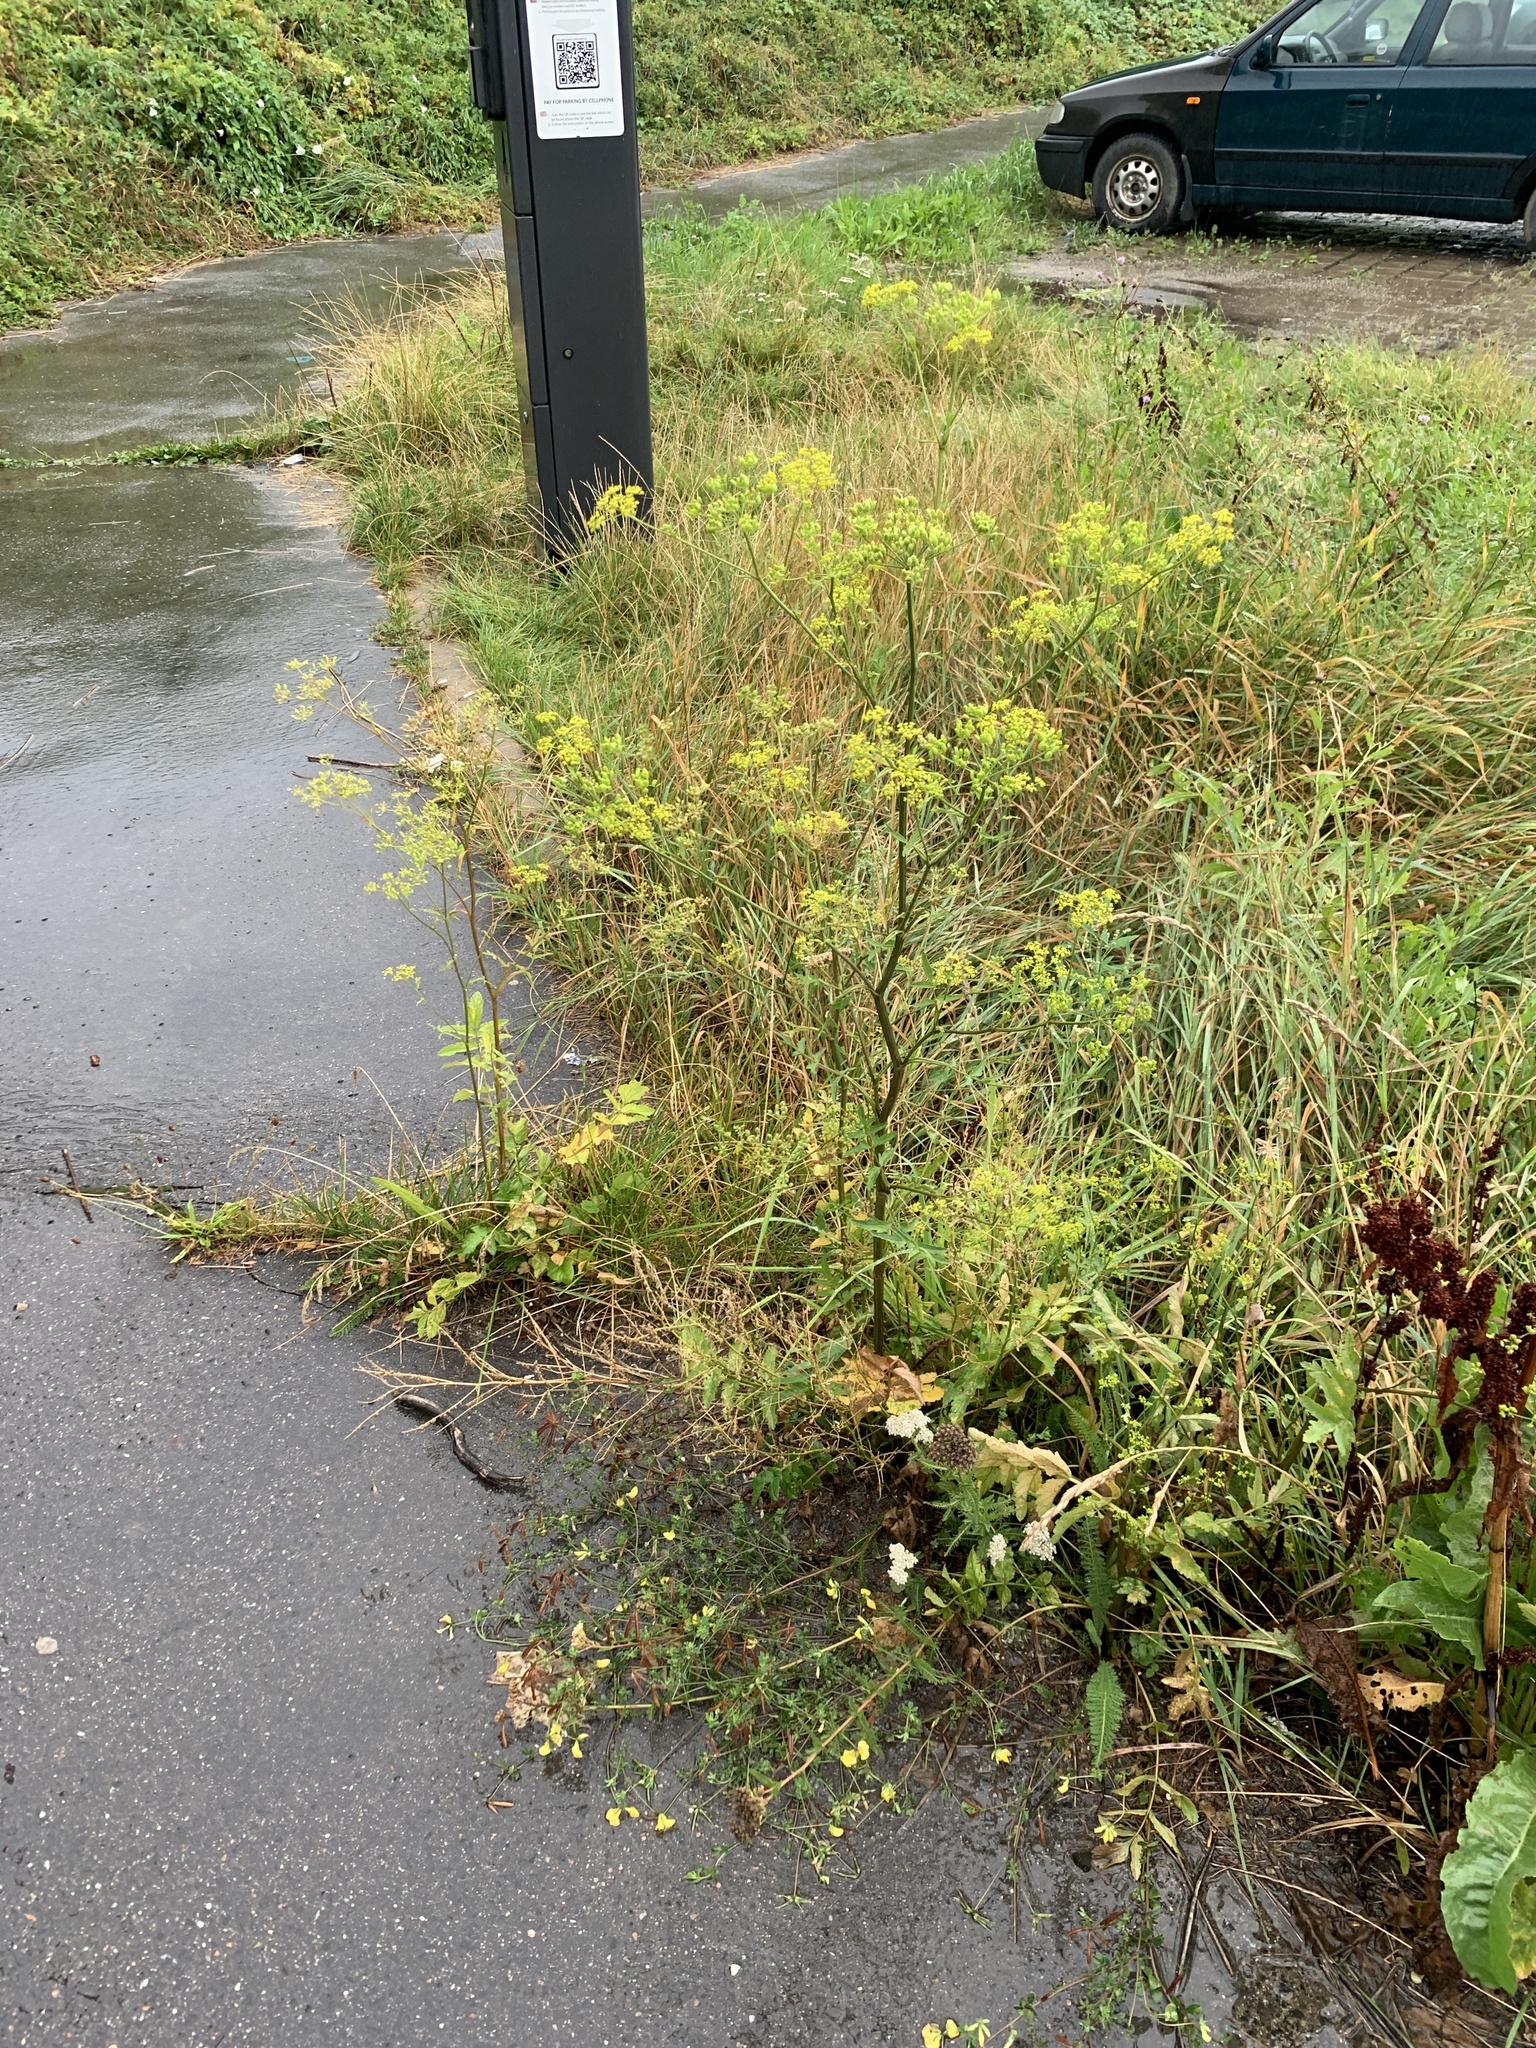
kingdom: Plantae
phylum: Tracheophyta
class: Magnoliopsida
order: Apiales
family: Apiaceae
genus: Pastinaca
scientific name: Pastinaca sativa
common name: Wild parsnip
